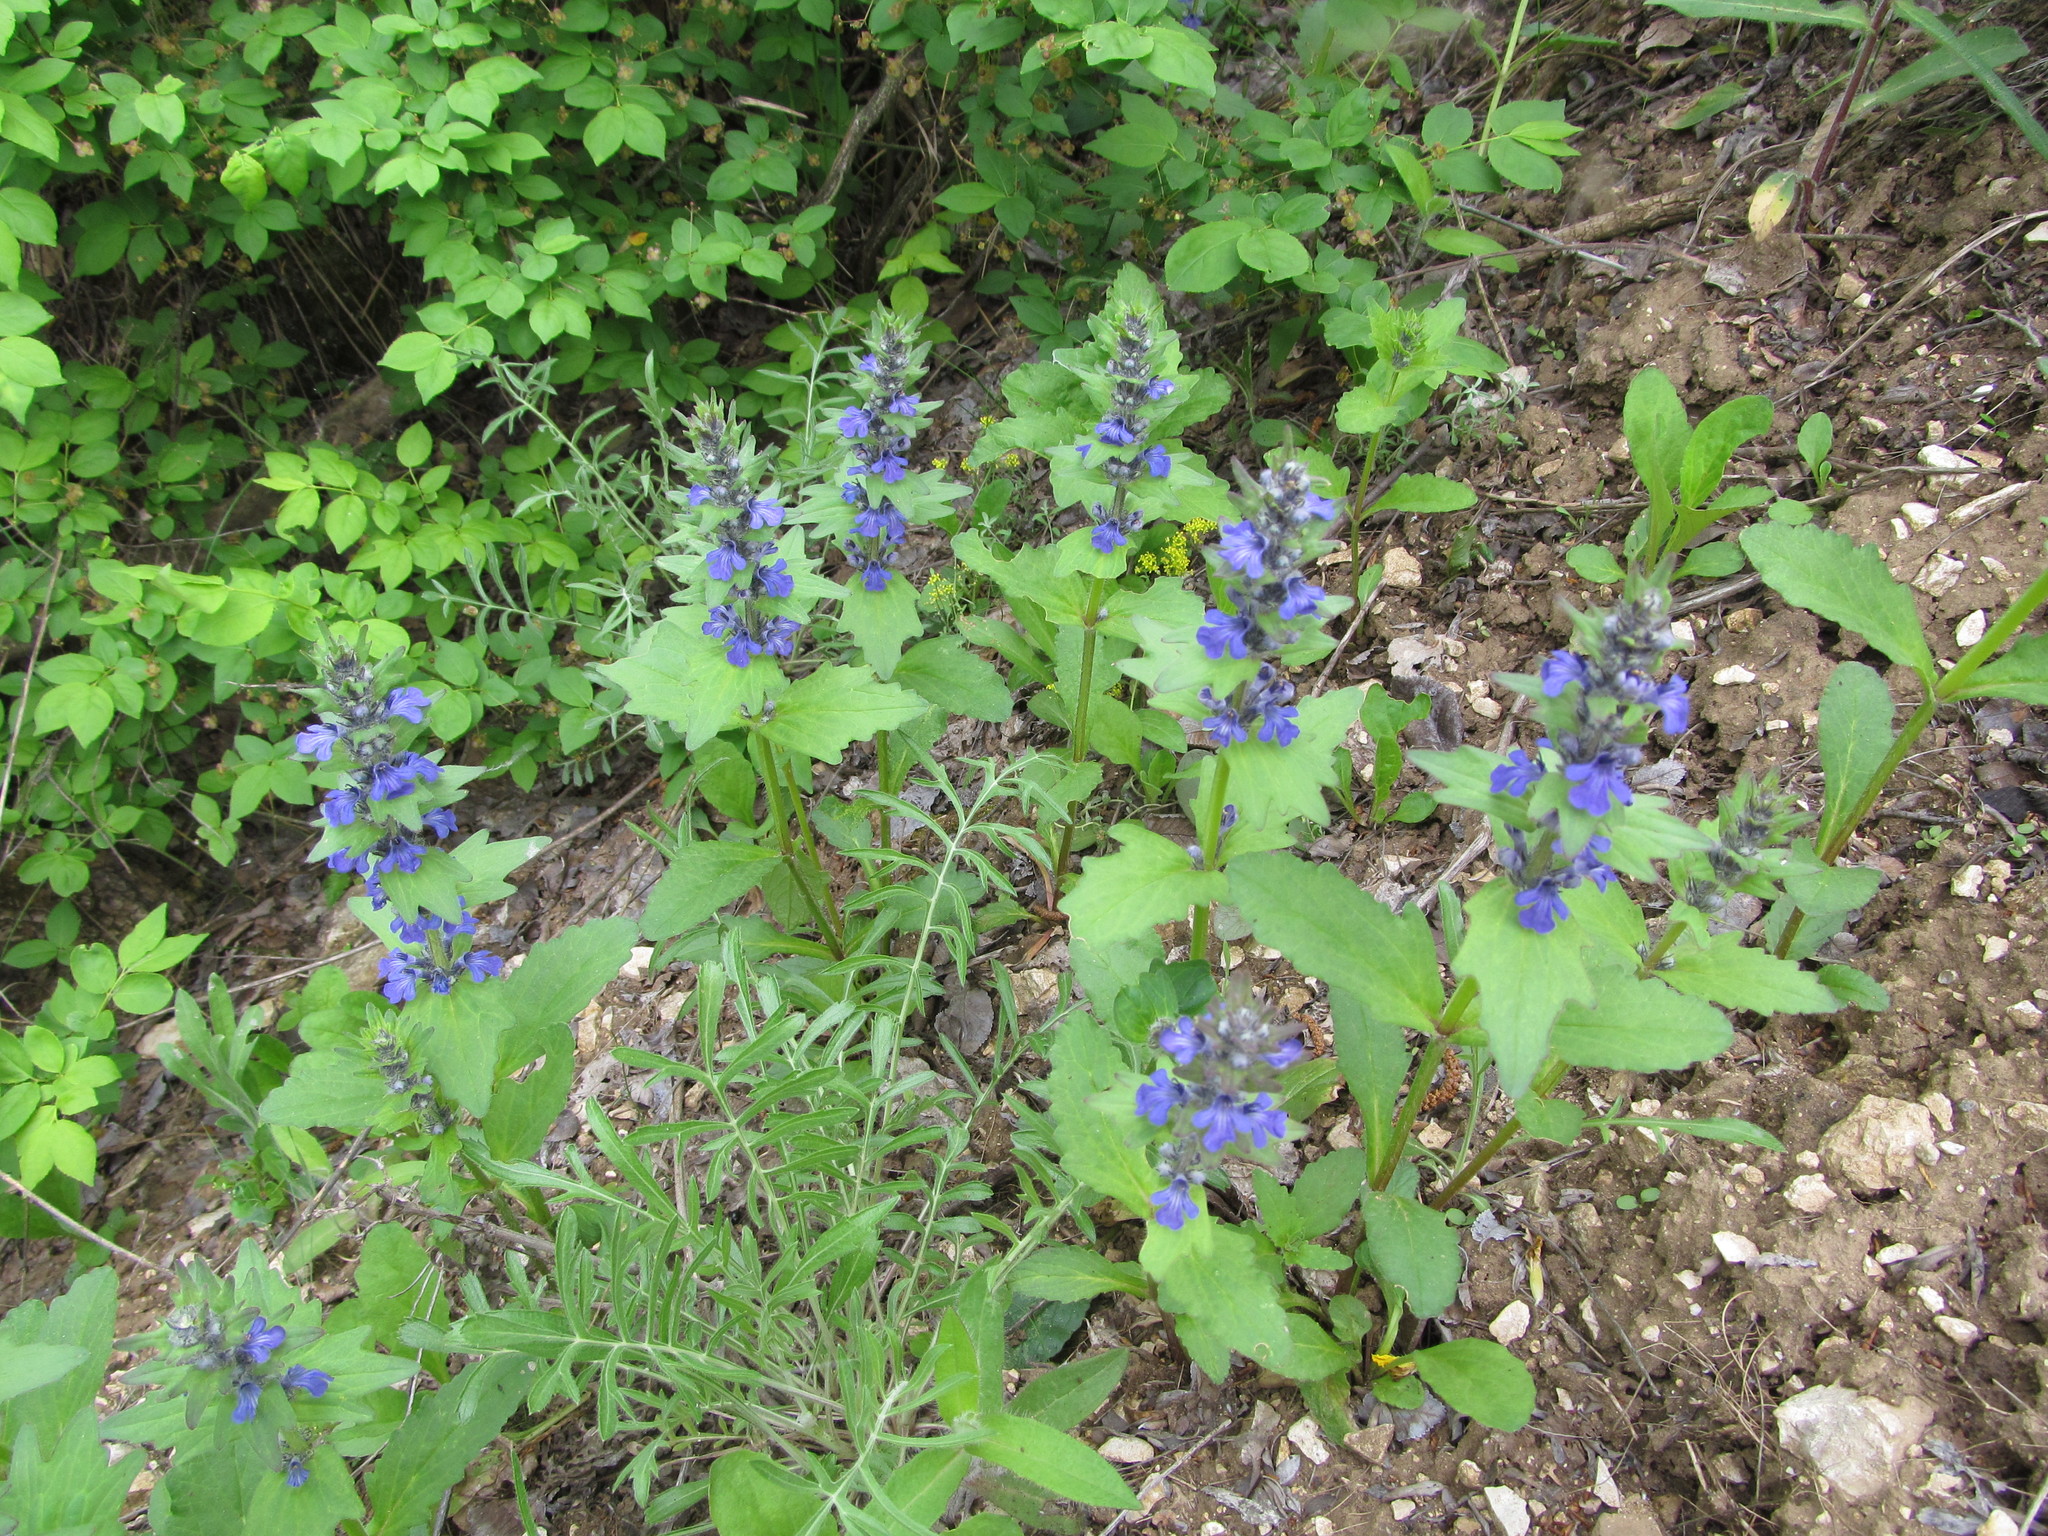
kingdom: Plantae
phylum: Tracheophyta
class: Magnoliopsida
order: Lamiales
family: Lamiaceae
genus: Ajuga
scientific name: Ajuga genevensis
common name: Blue bugle
